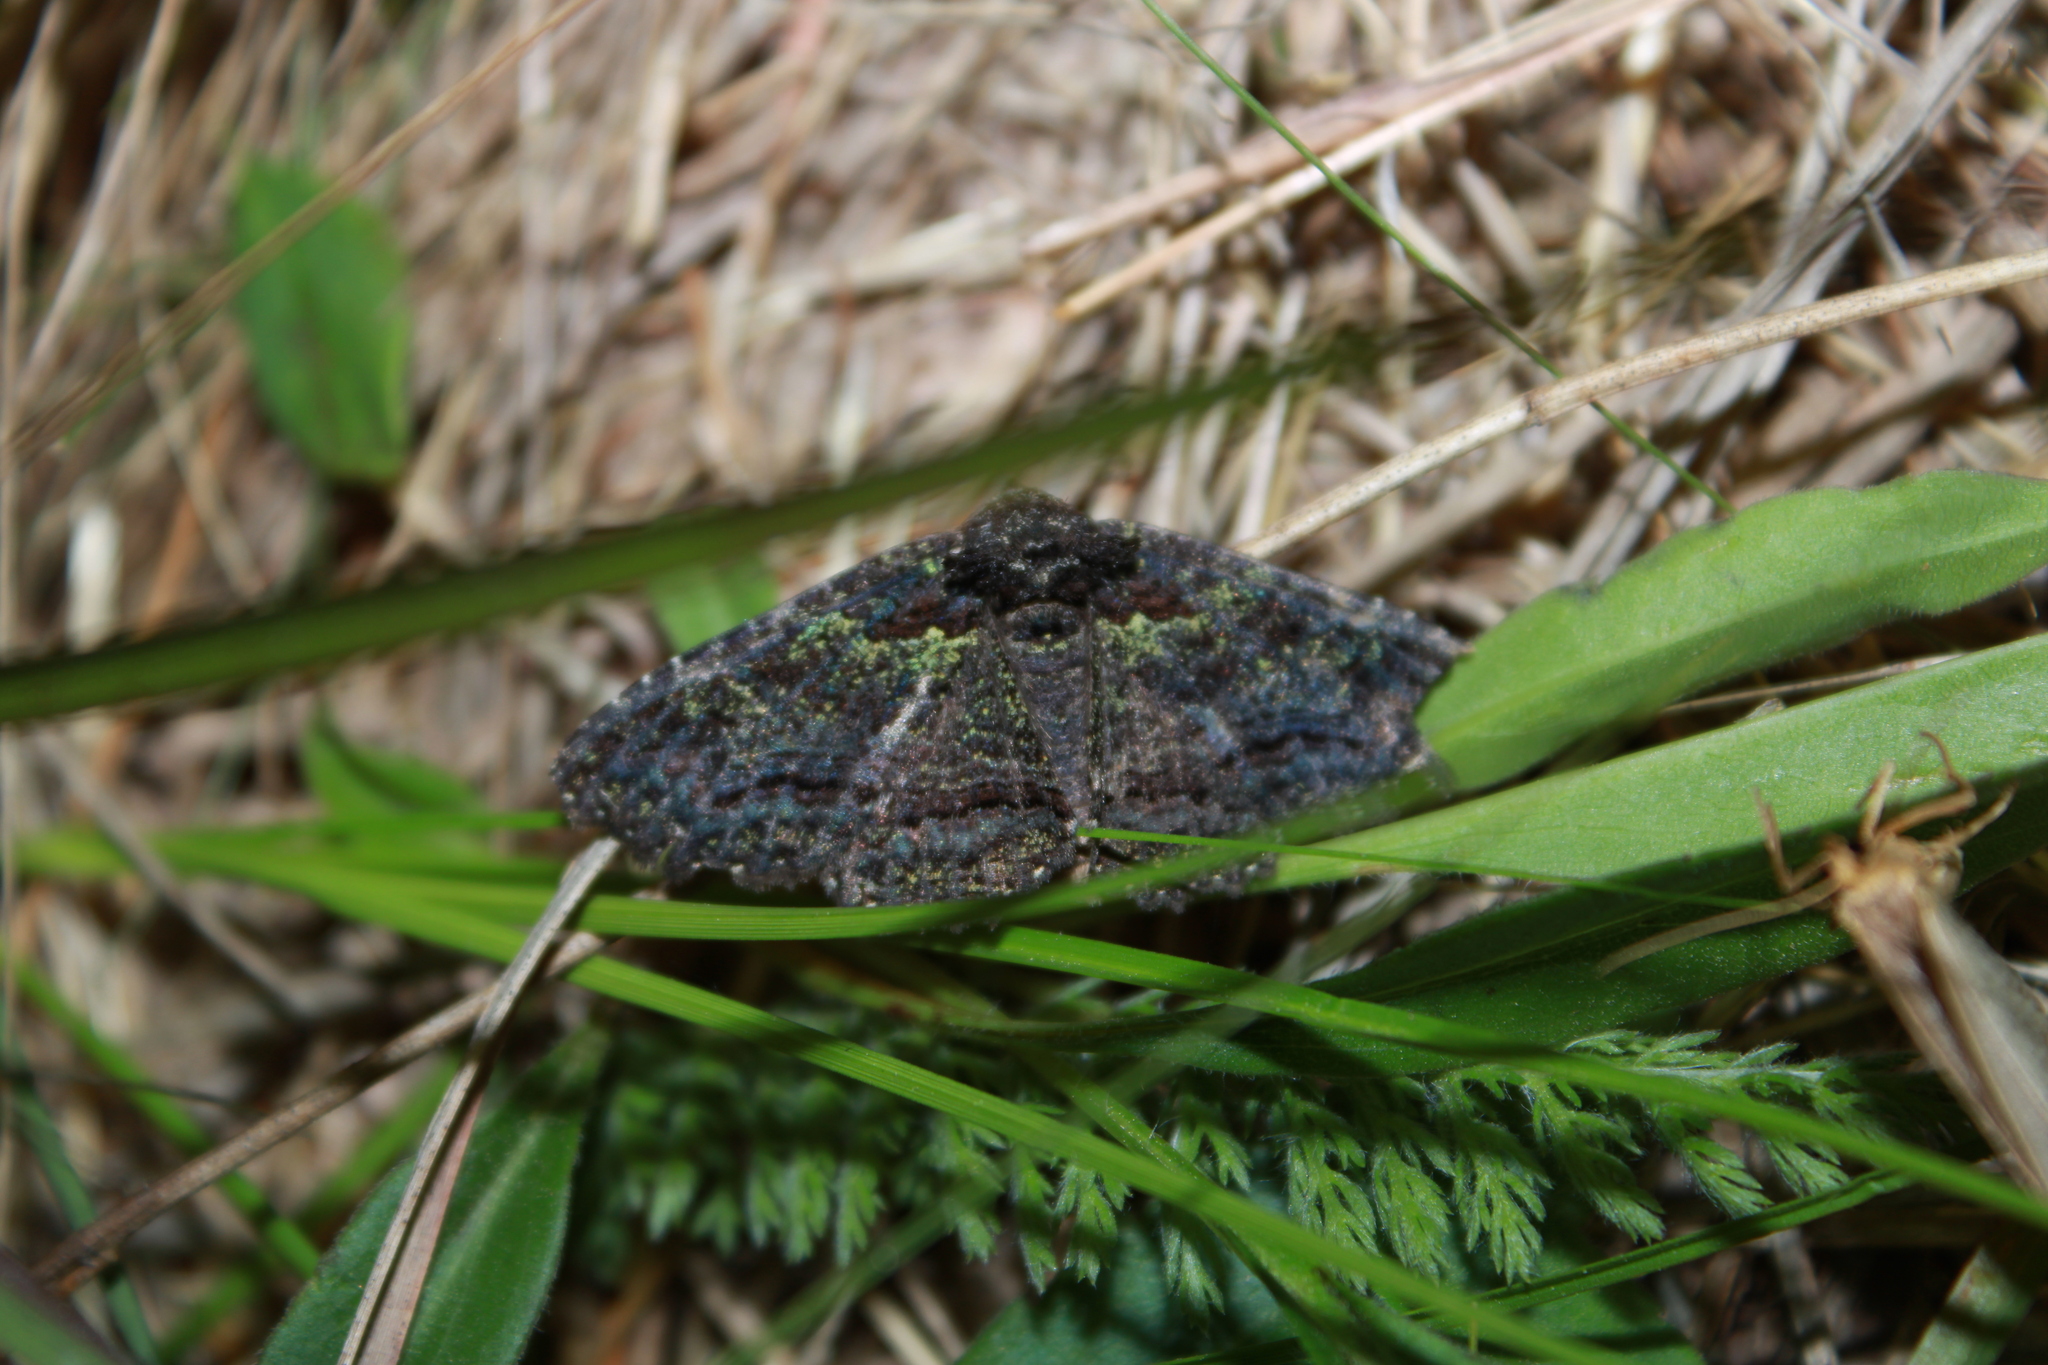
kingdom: Animalia
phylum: Arthropoda
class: Insecta
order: Lepidoptera
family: Erebidae
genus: Zale
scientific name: Zale aeruginosa
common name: Green-dusted zale moth
